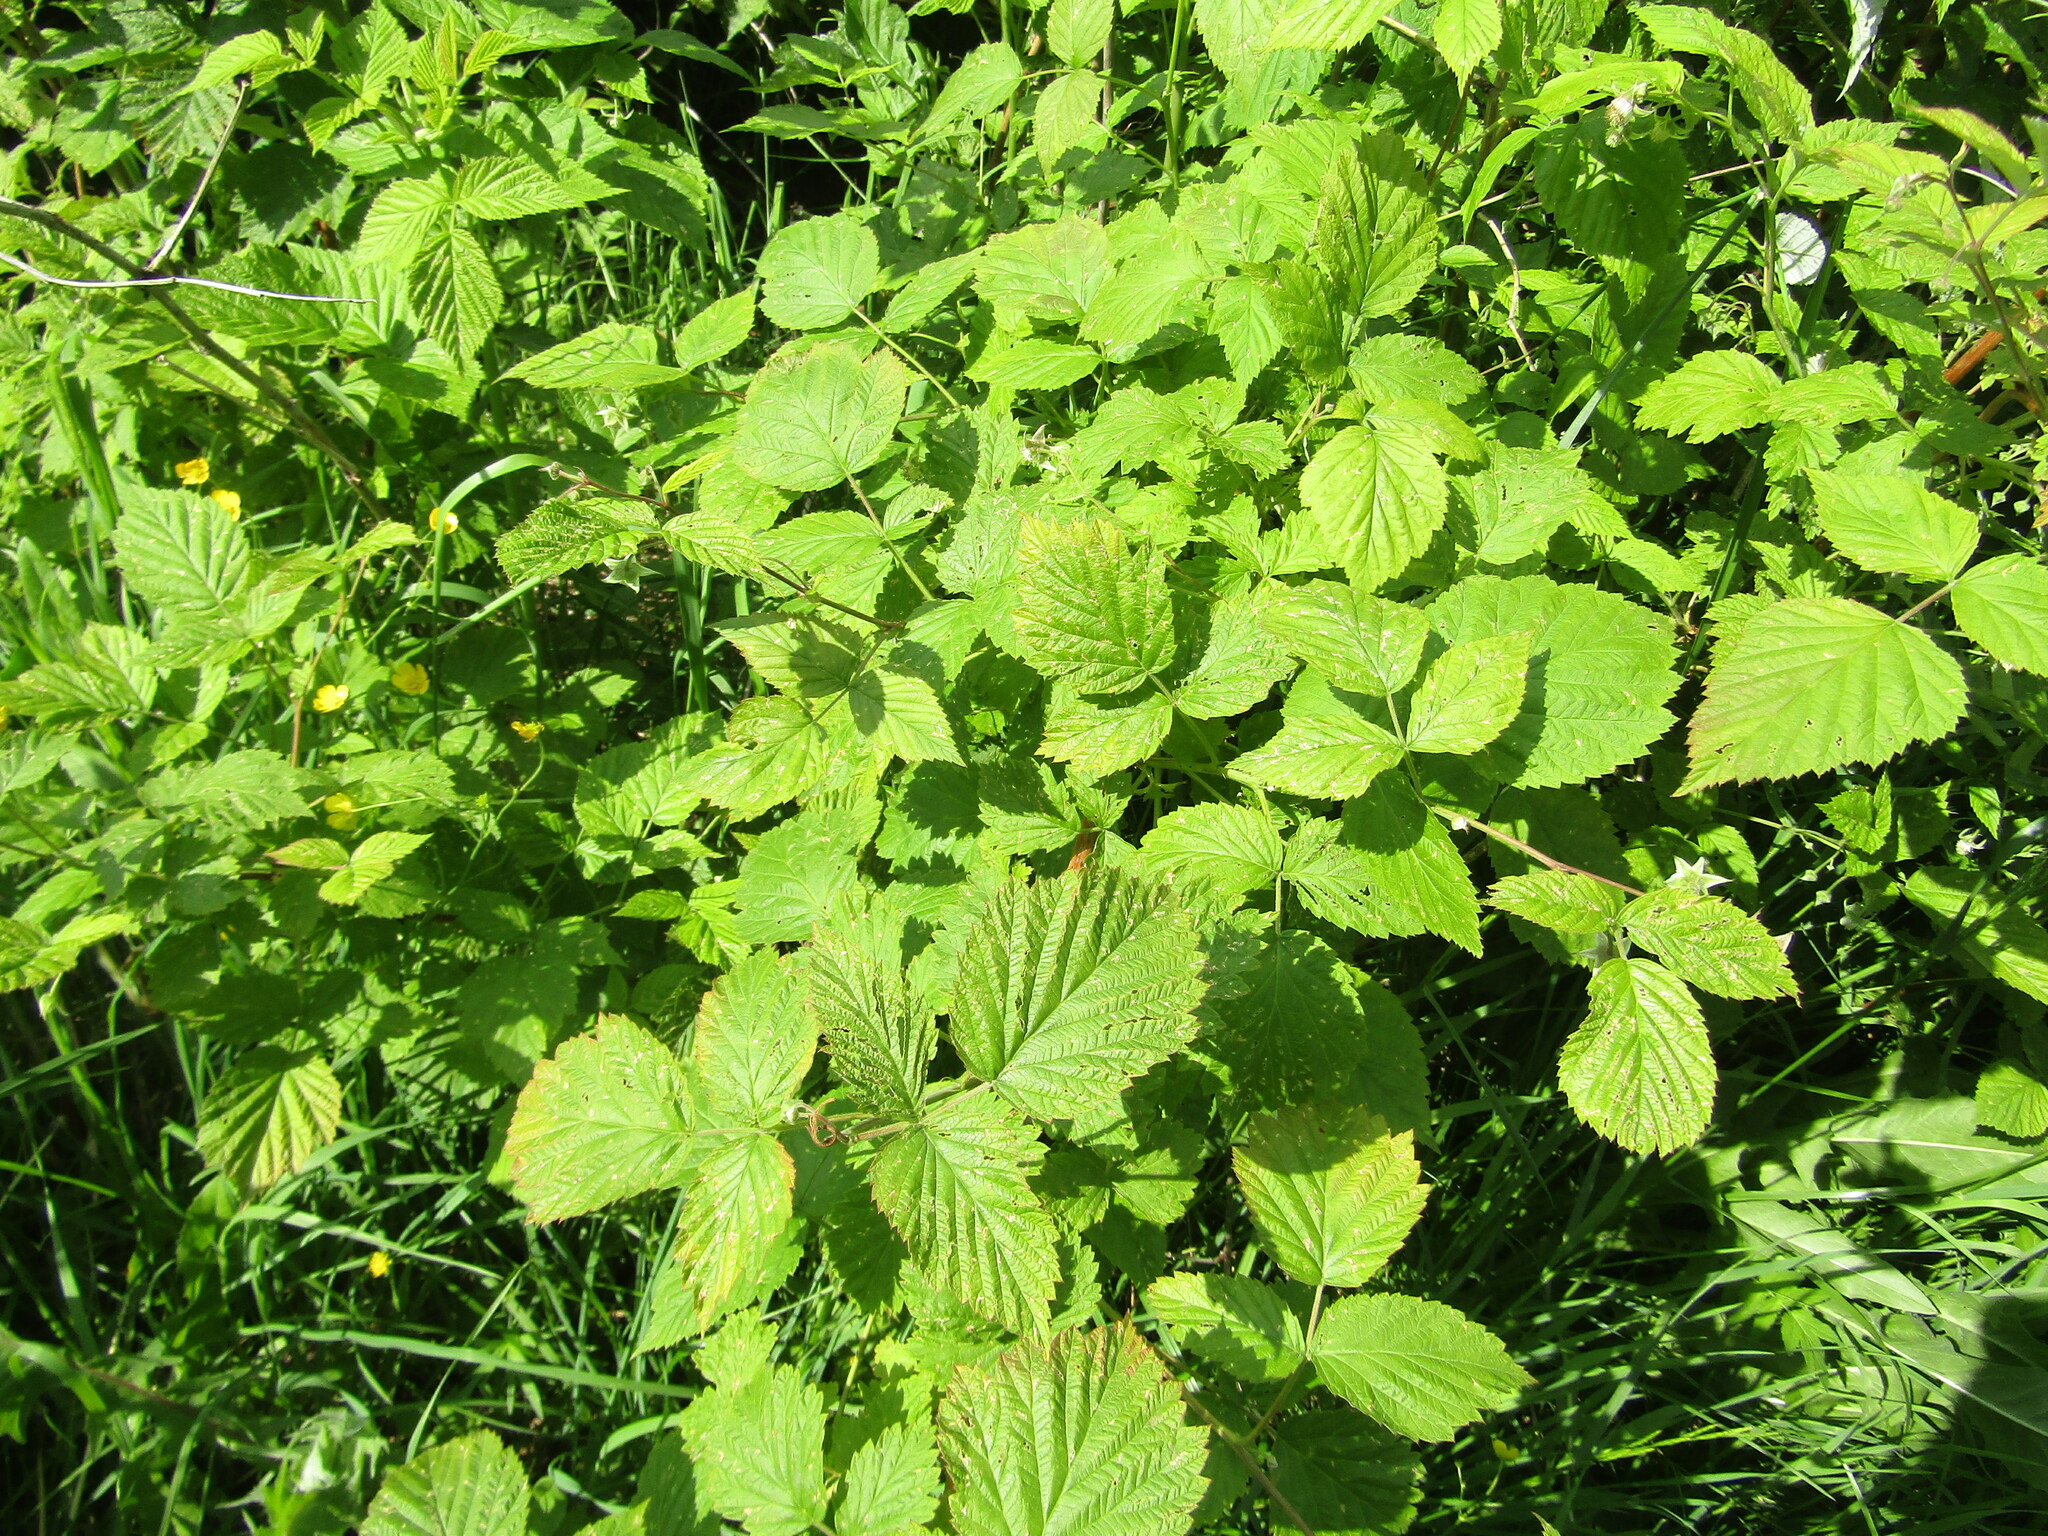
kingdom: Plantae
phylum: Tracheophyta
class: Magnoliopsida
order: Rosales
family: Rosaceae
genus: Rubus
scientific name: Rubus caesius
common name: Dewberry
